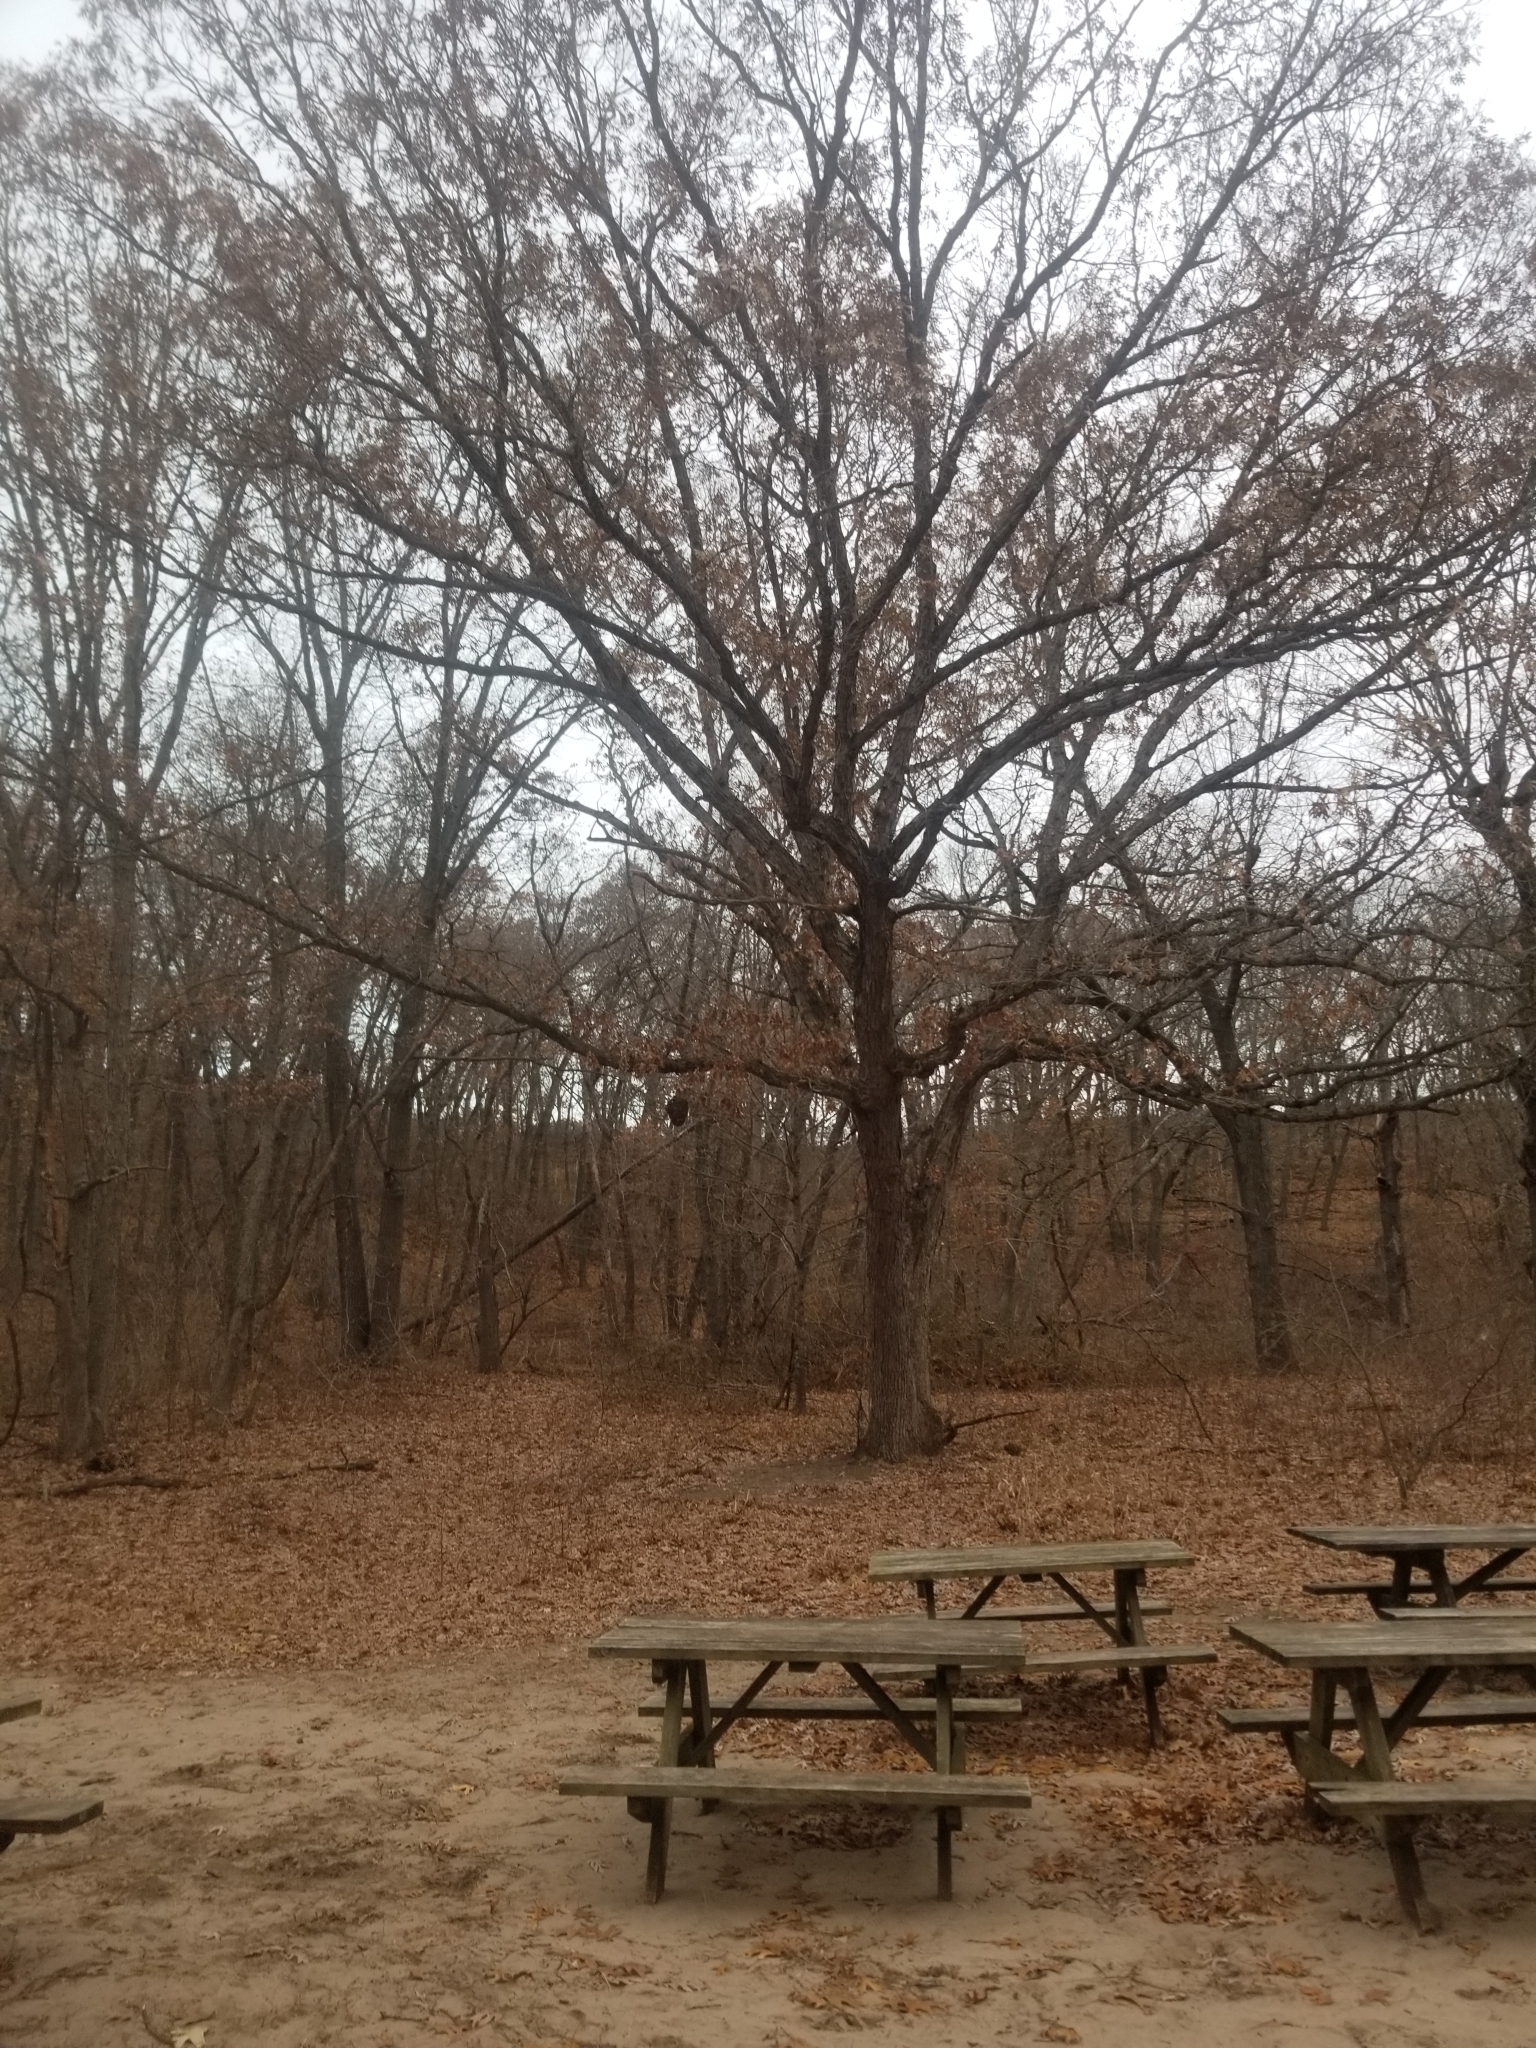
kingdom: Animalia
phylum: Arthropoda
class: Insecta
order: Hymenoptera
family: Vespidae
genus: Dolichovespula
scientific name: Dolichovespula
